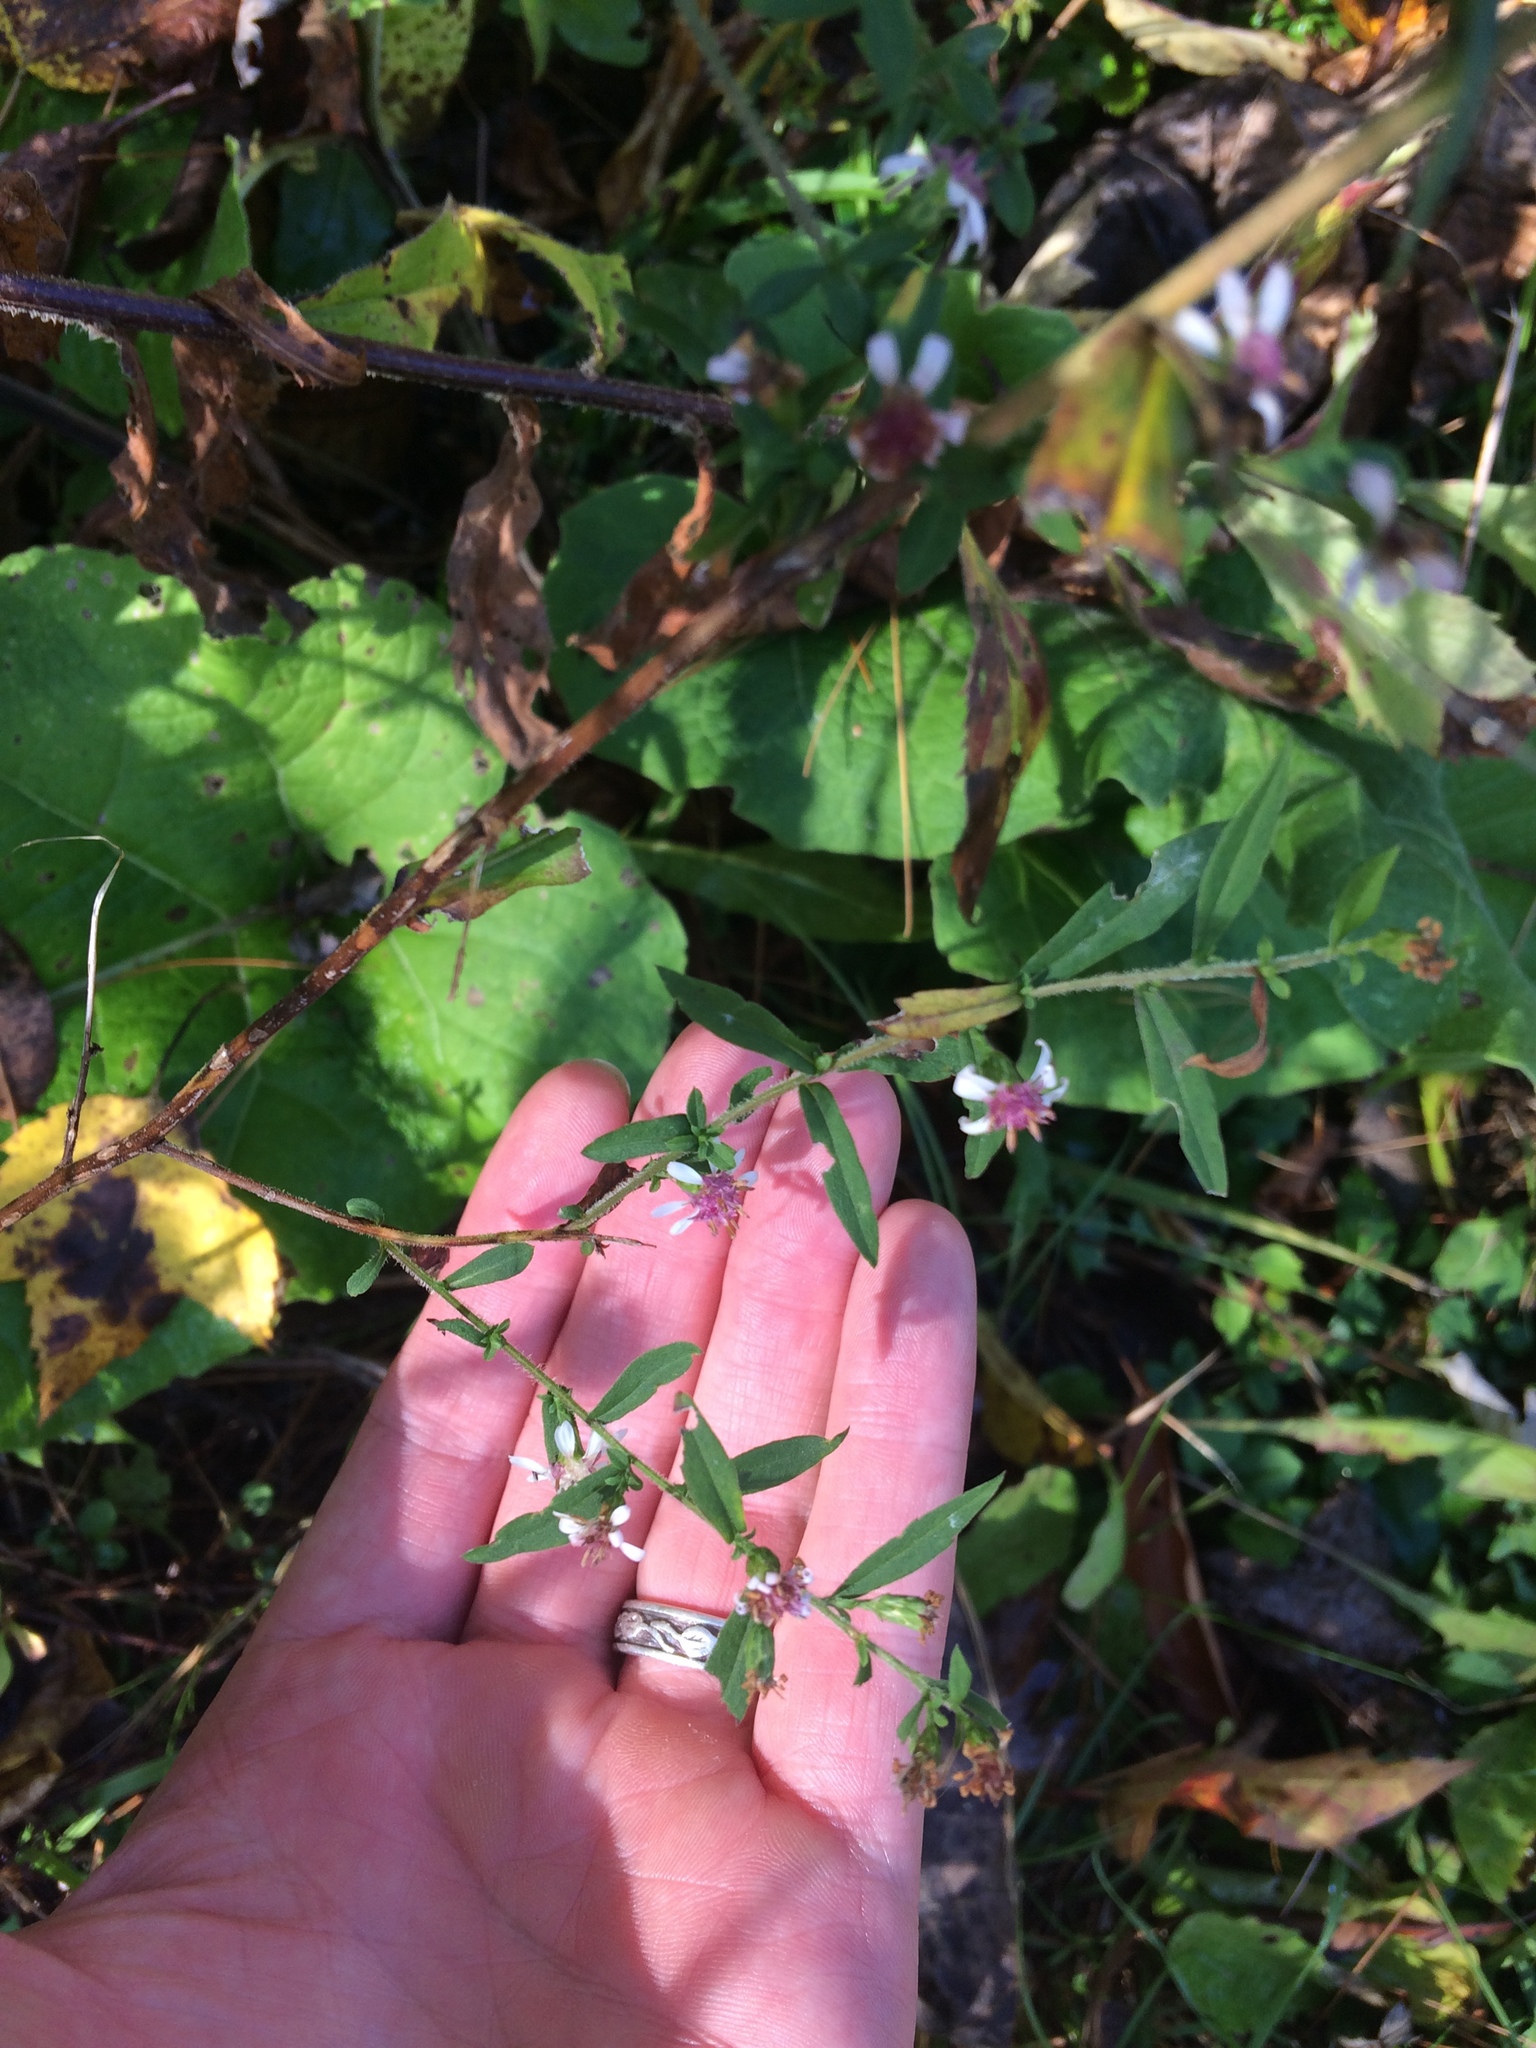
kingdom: Plantae
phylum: Tracheophyta
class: Magnoliopsida
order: Asterales
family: Asteraceae
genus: Symphyotrichum
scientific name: Symphyotrichum lateriflorum
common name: Calico aster
